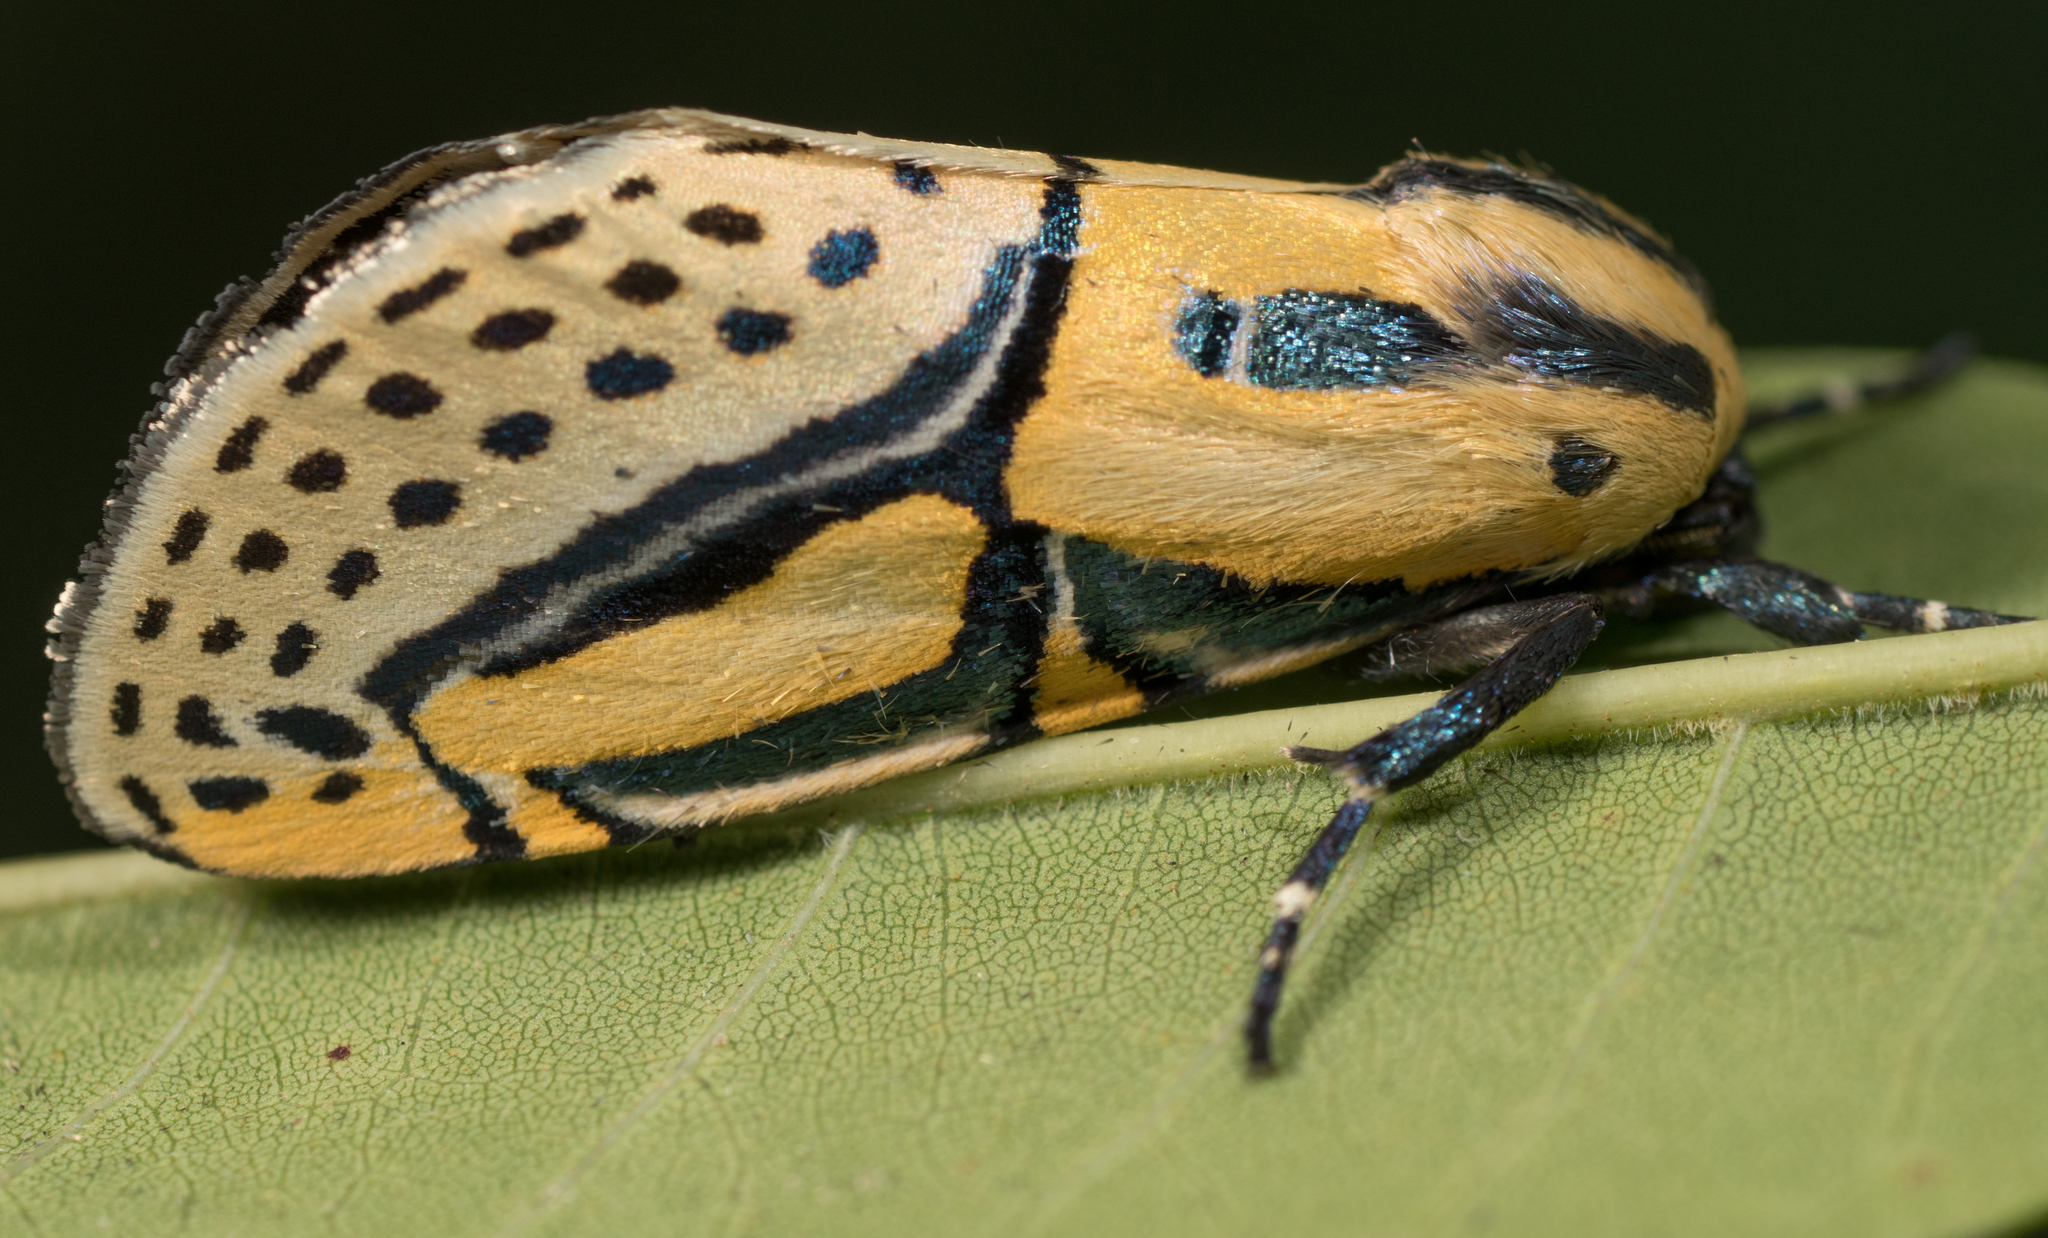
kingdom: Animalia
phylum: Arthropoda
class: Insecta
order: Lepidoptera
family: Erebidae
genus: Diphthera
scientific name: Diphthera festiva
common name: Hieroglyphic moth
